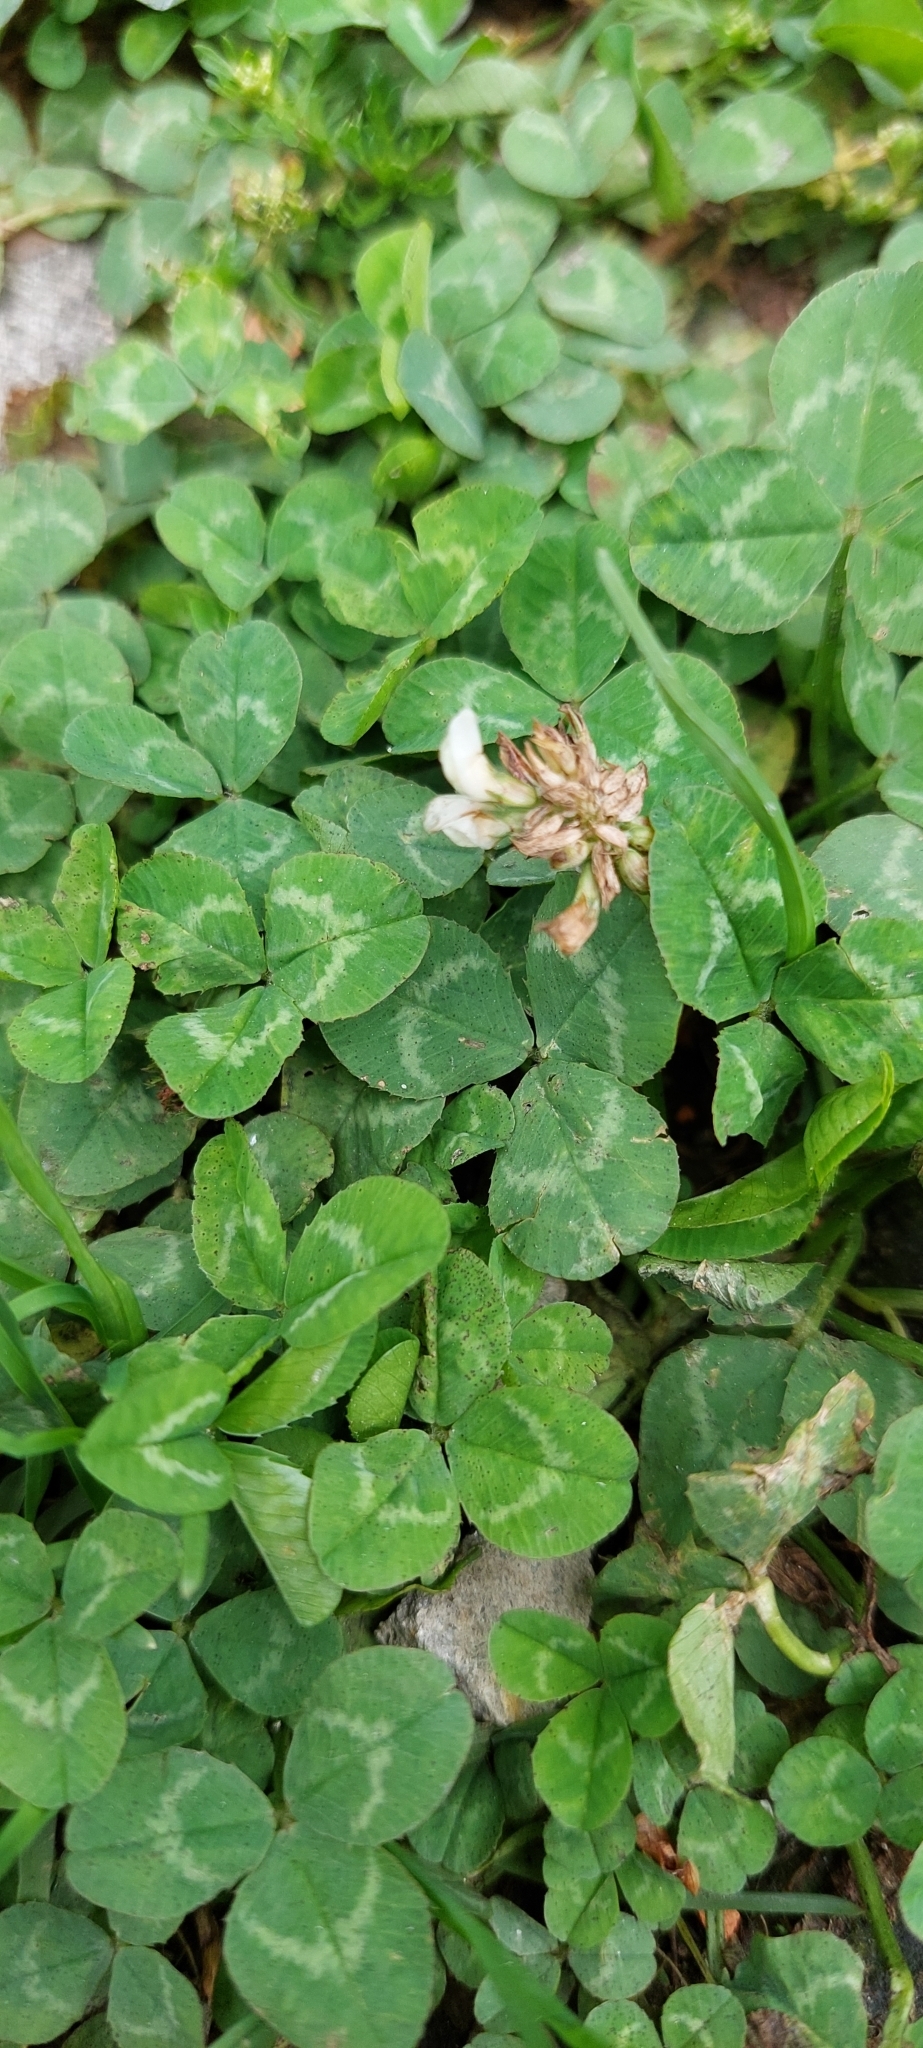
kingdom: Plantae
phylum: Tracheophyta
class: Magnoliopsida
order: Fabales
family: Fabaceae
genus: Trifolium
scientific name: Trifolium repens
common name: White clover
